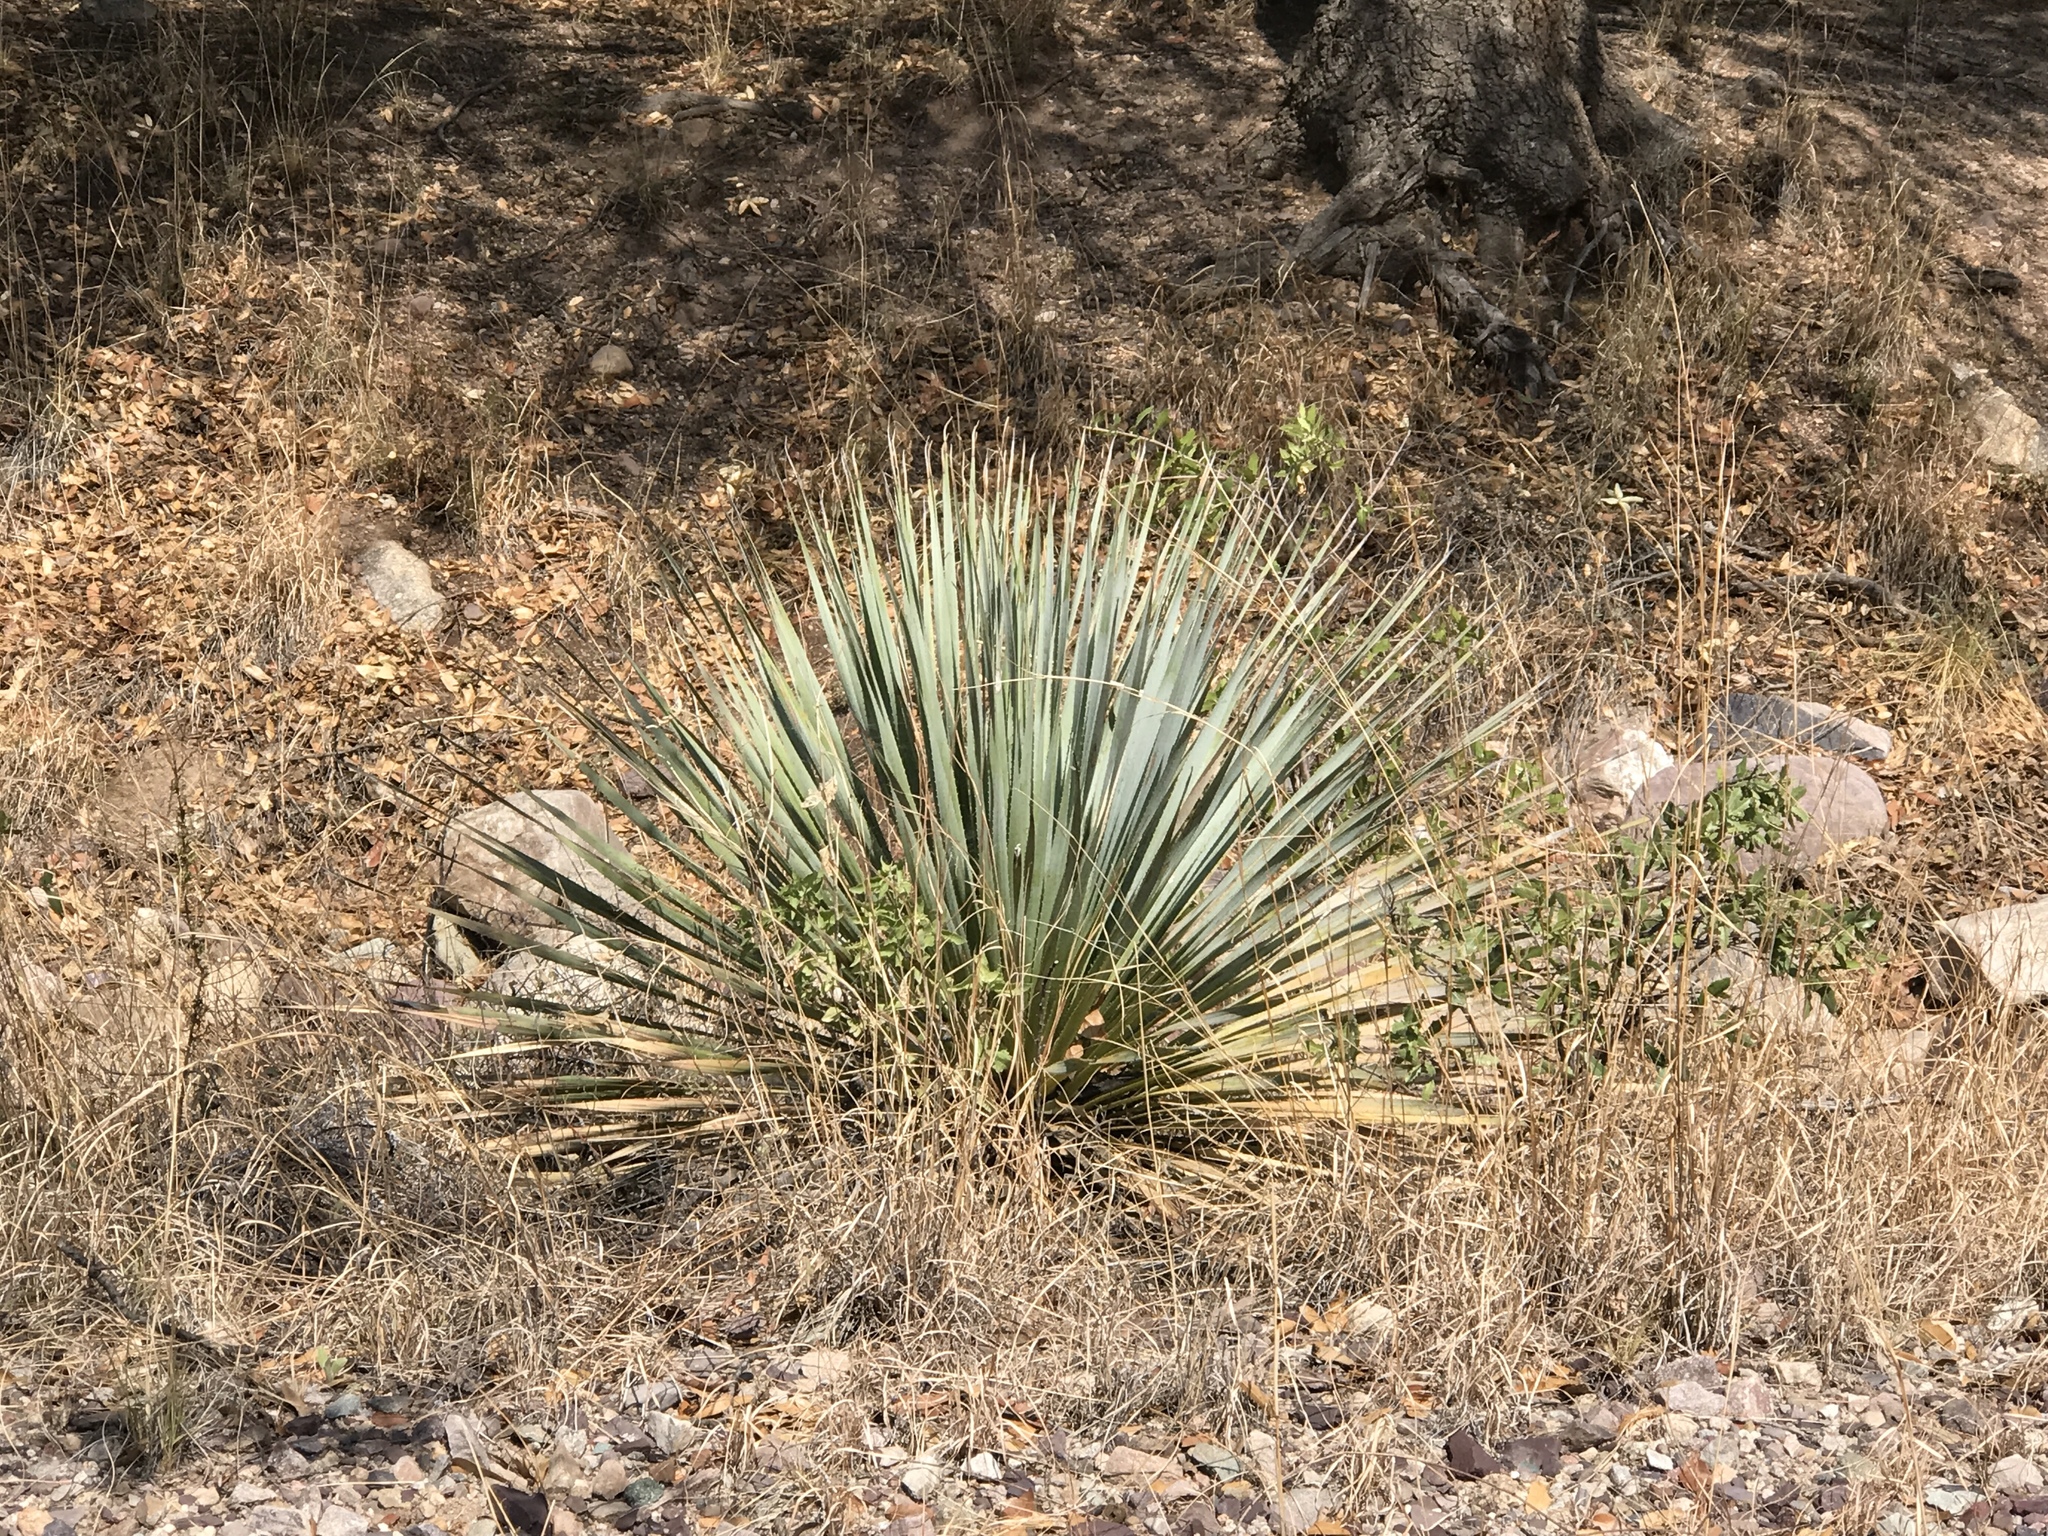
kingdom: Plantae
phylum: Tracheophyta
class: Liliopsida
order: Asparagales
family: Asparagaceae
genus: Dasylirion
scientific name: Dasylirion wheeleri
